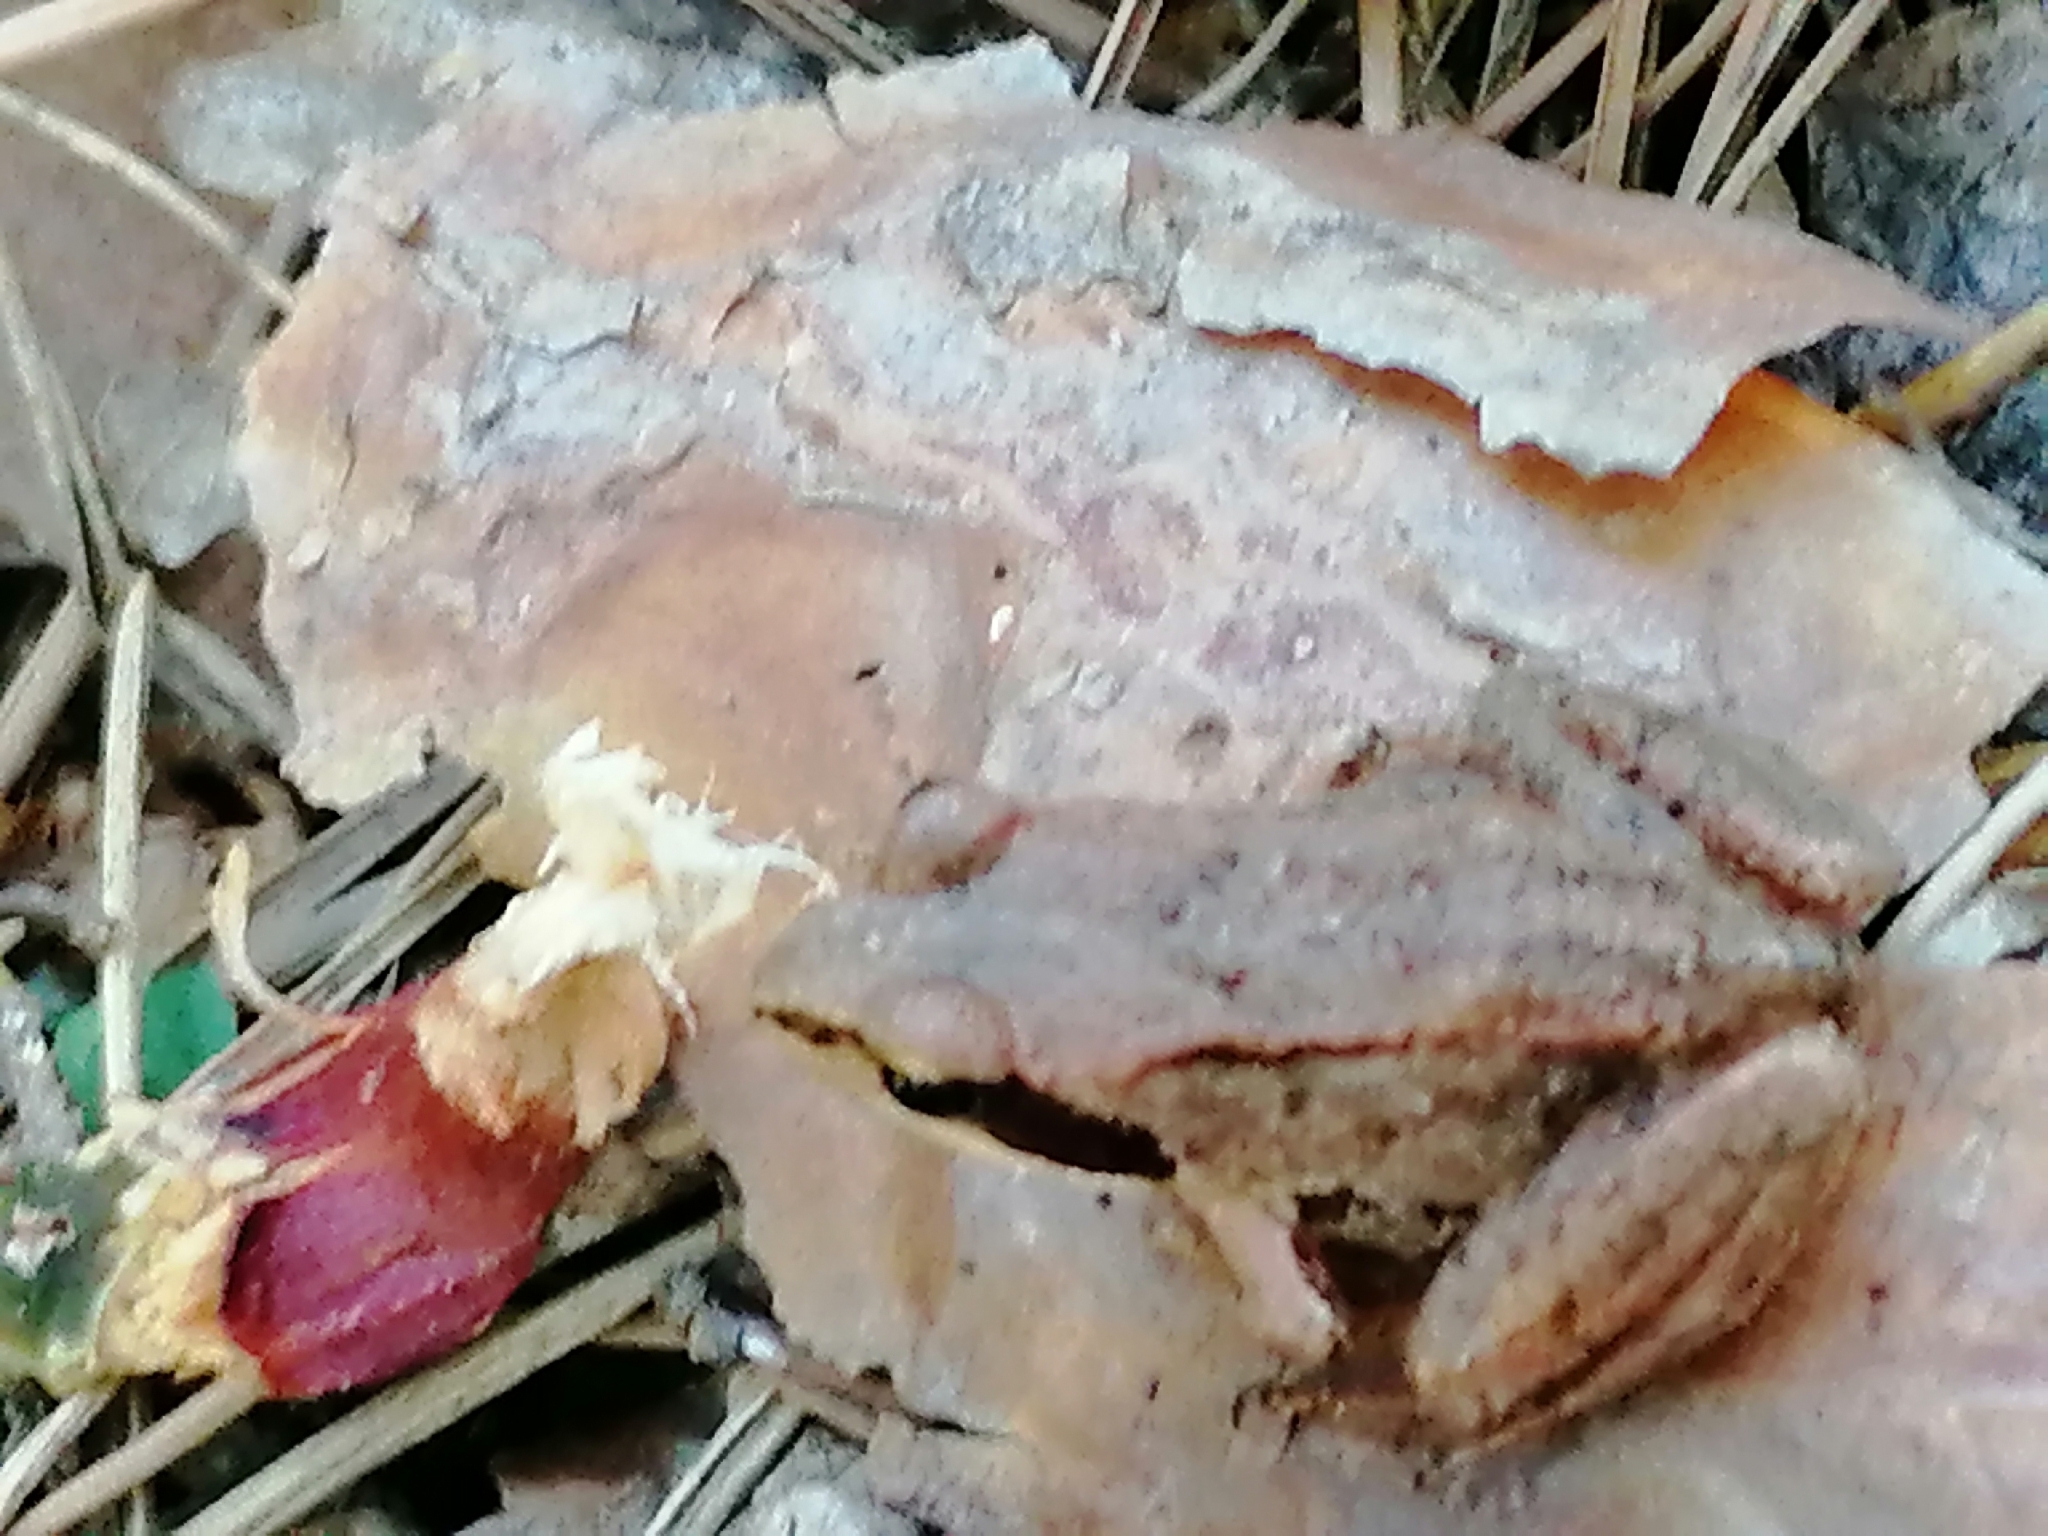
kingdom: Animalia
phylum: Chordata
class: Amphibia
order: Anura
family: Ranidae
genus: Rana
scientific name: Rana temporaria
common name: Common frog
